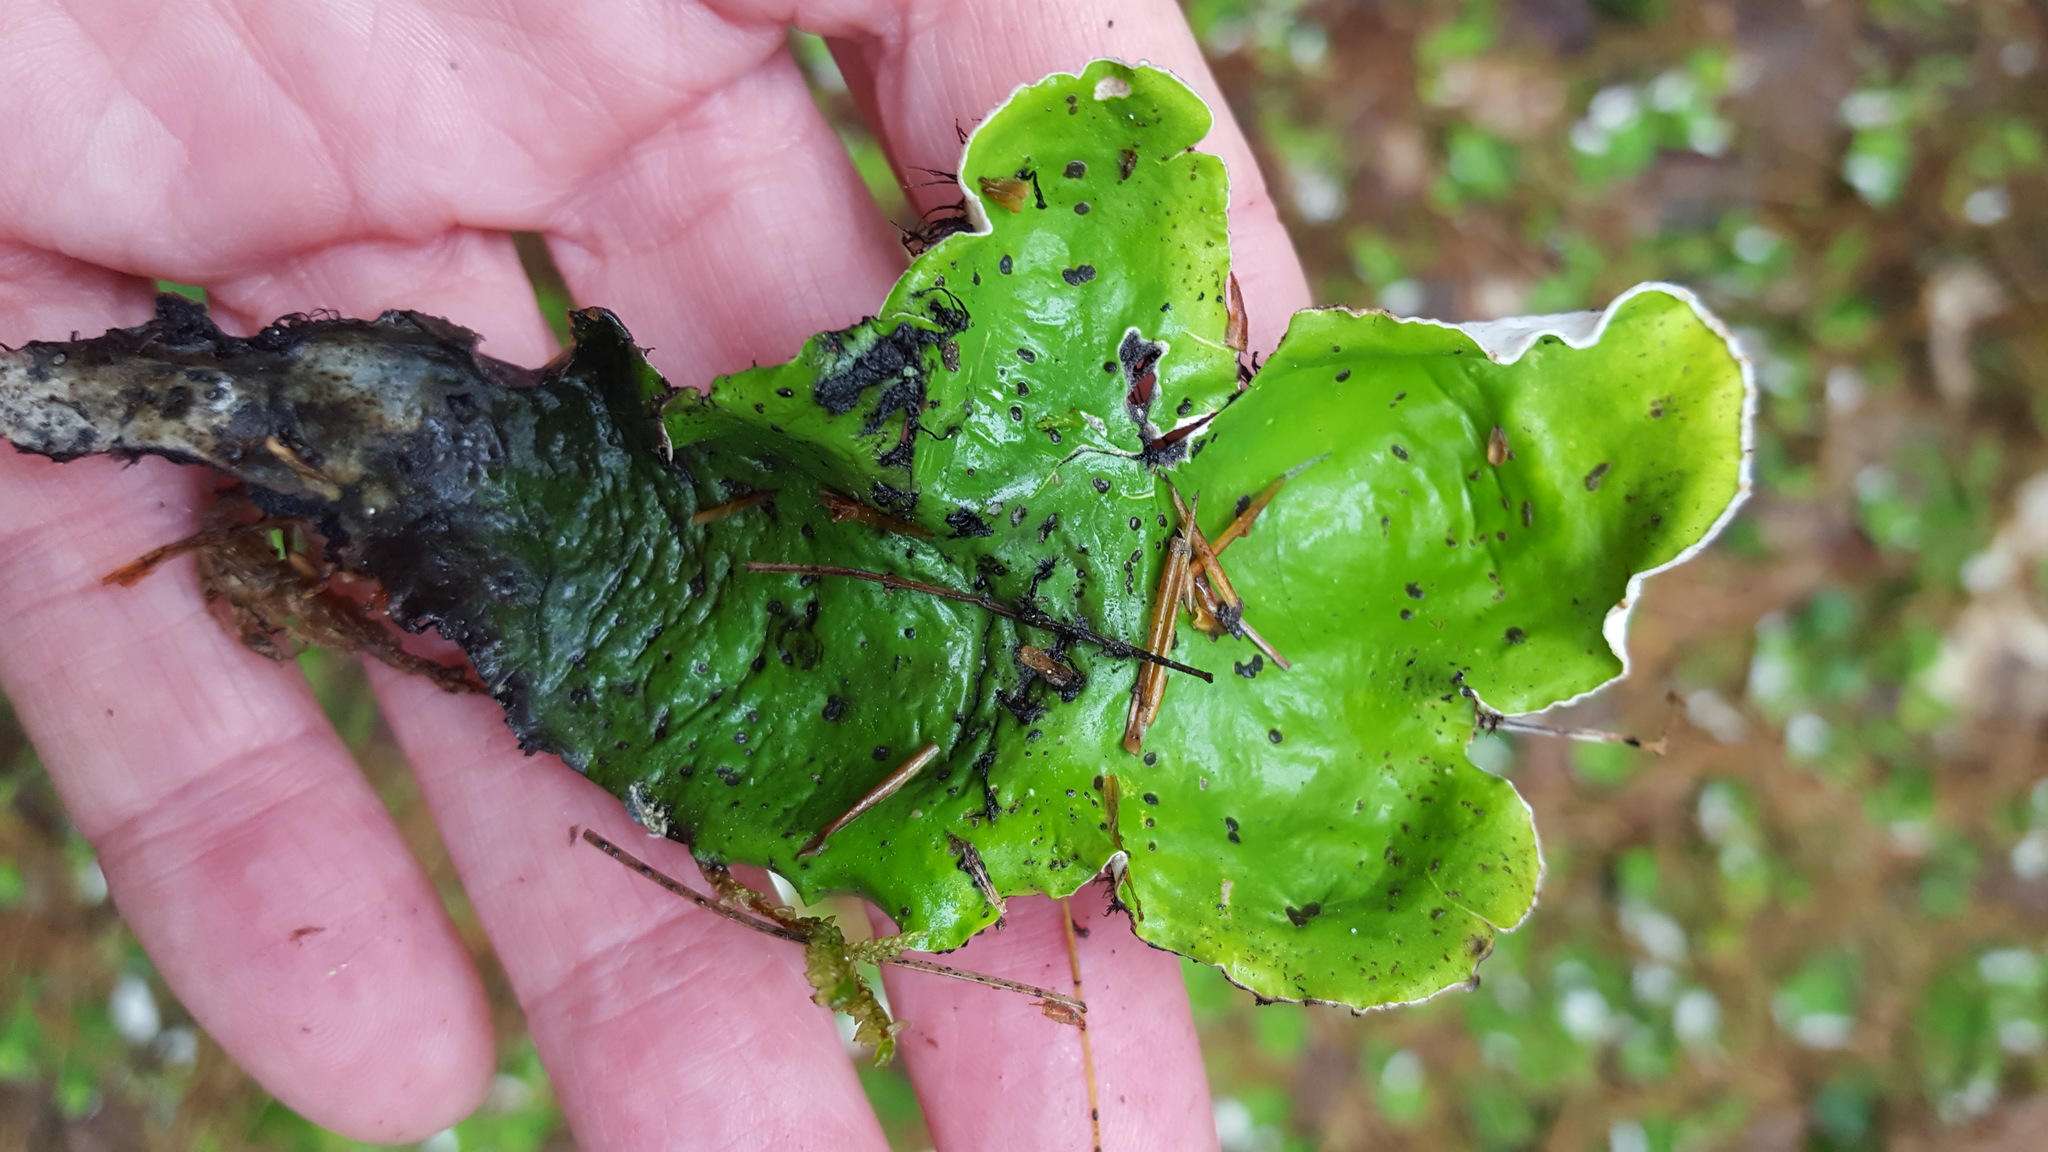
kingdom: Fungi
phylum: Ascomycota
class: Lecanoromycetes
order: Peltigerales
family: Peltigeraceae
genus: Peltigera
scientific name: Peltigera aphthosa
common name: Common freckle pelt lichen
